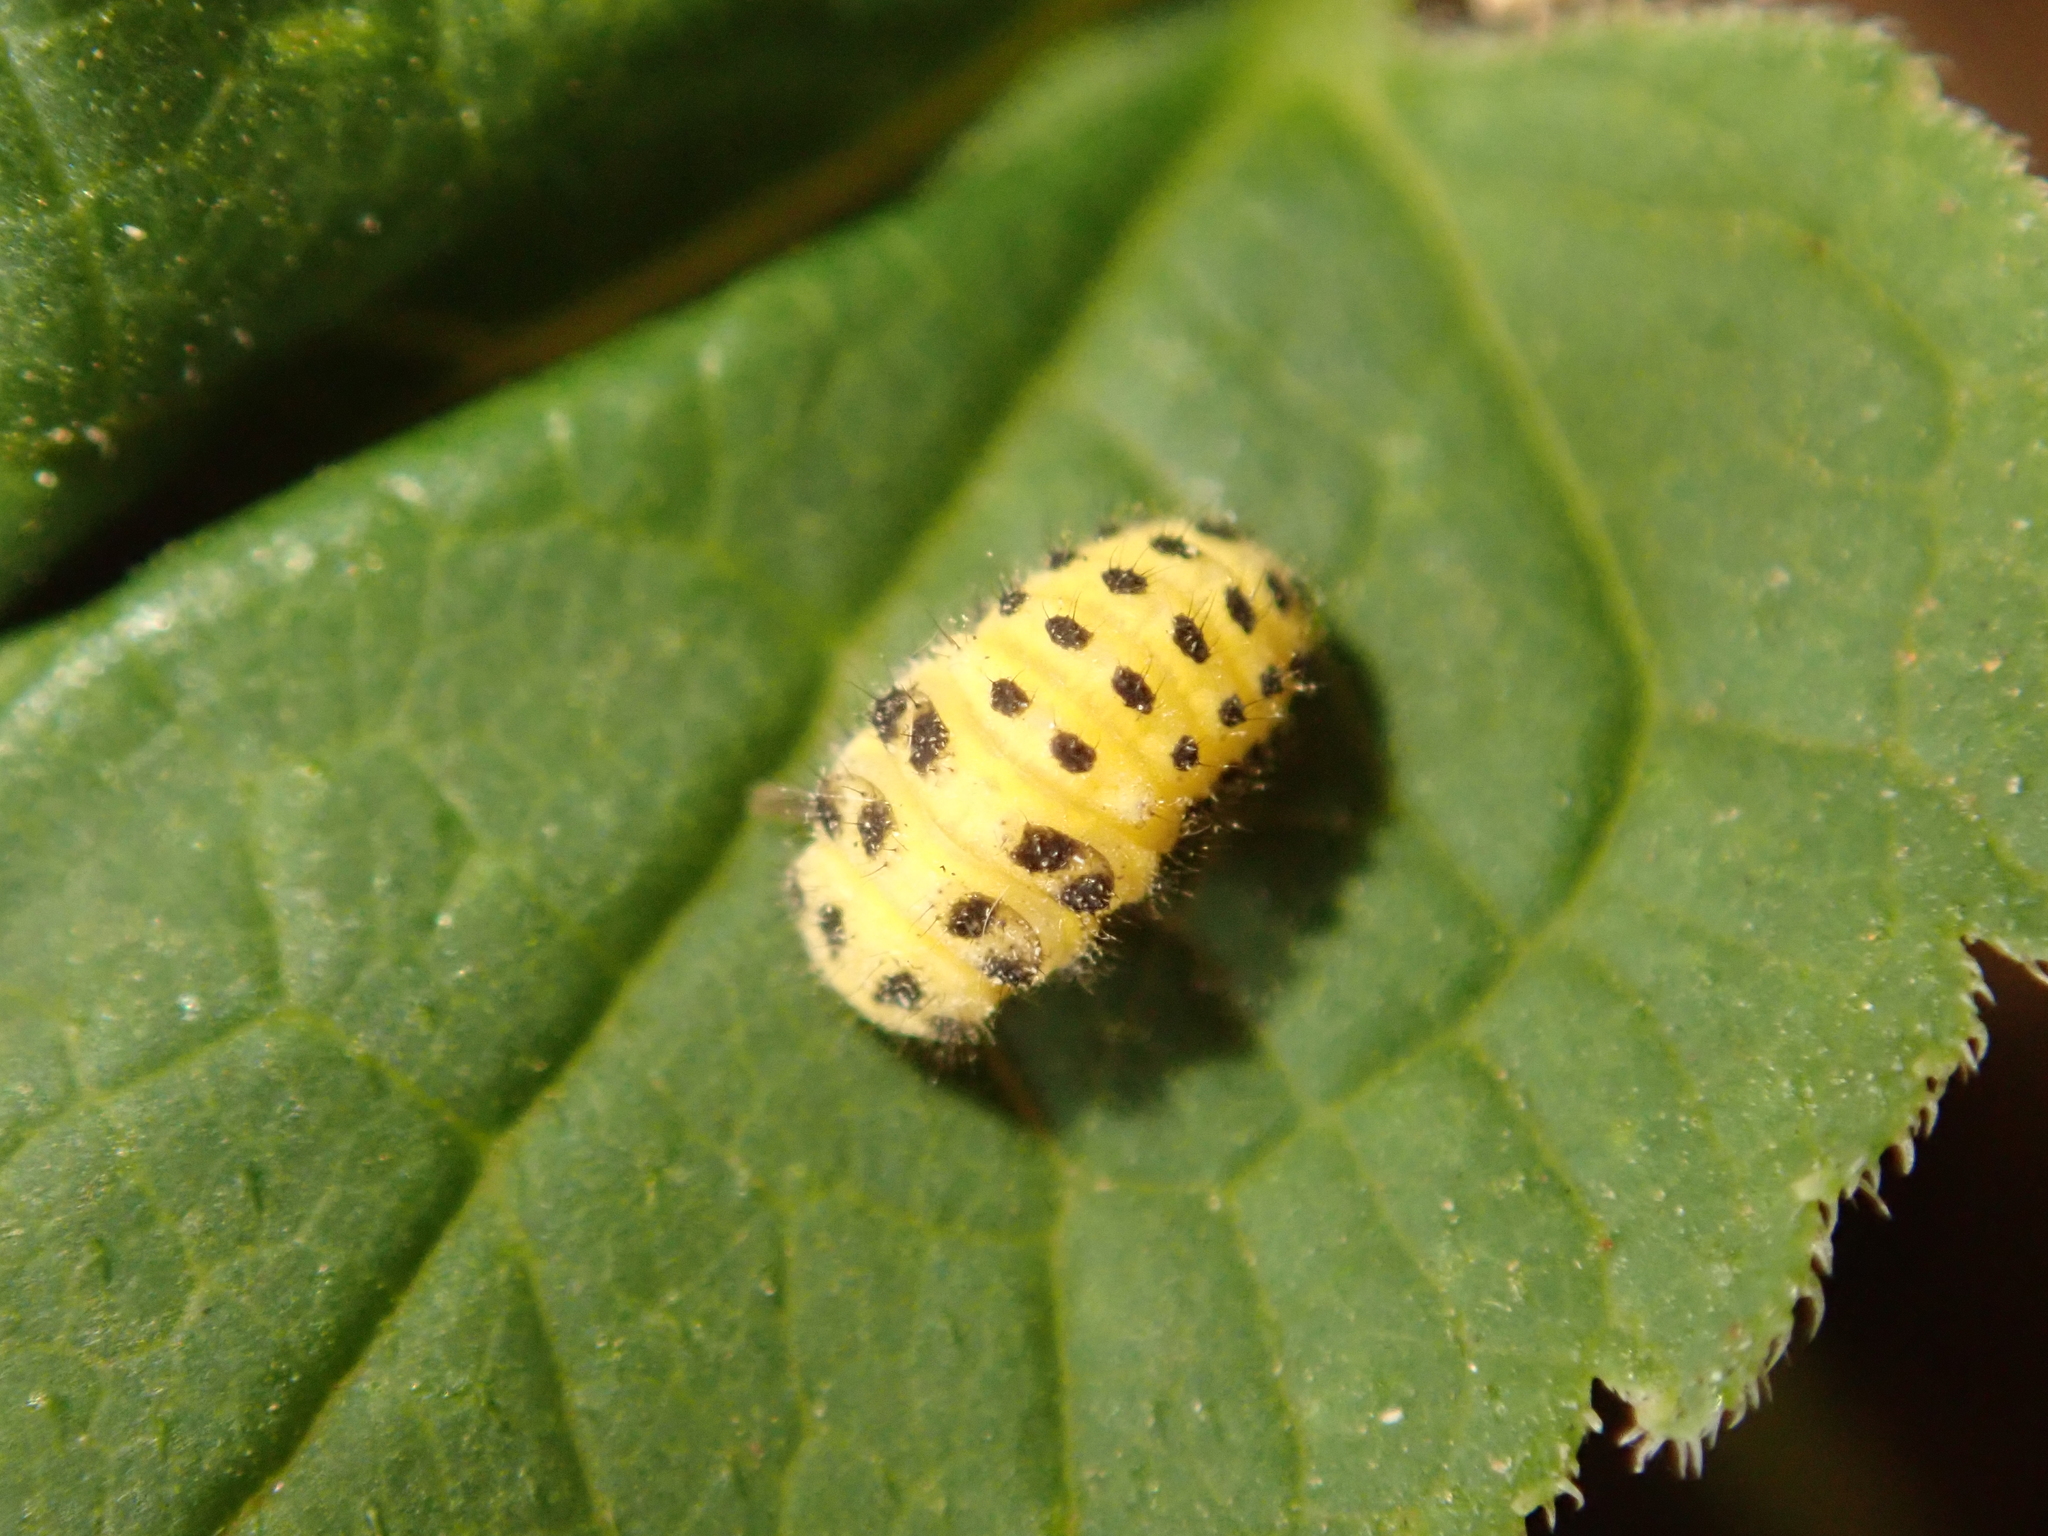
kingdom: Animalia
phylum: Arthropoda
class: Insecta
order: Coleoptera
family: Coccinellidae
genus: Psyllobora
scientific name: Psyllobora vigintiduopunctata
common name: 22-spot ladybird
